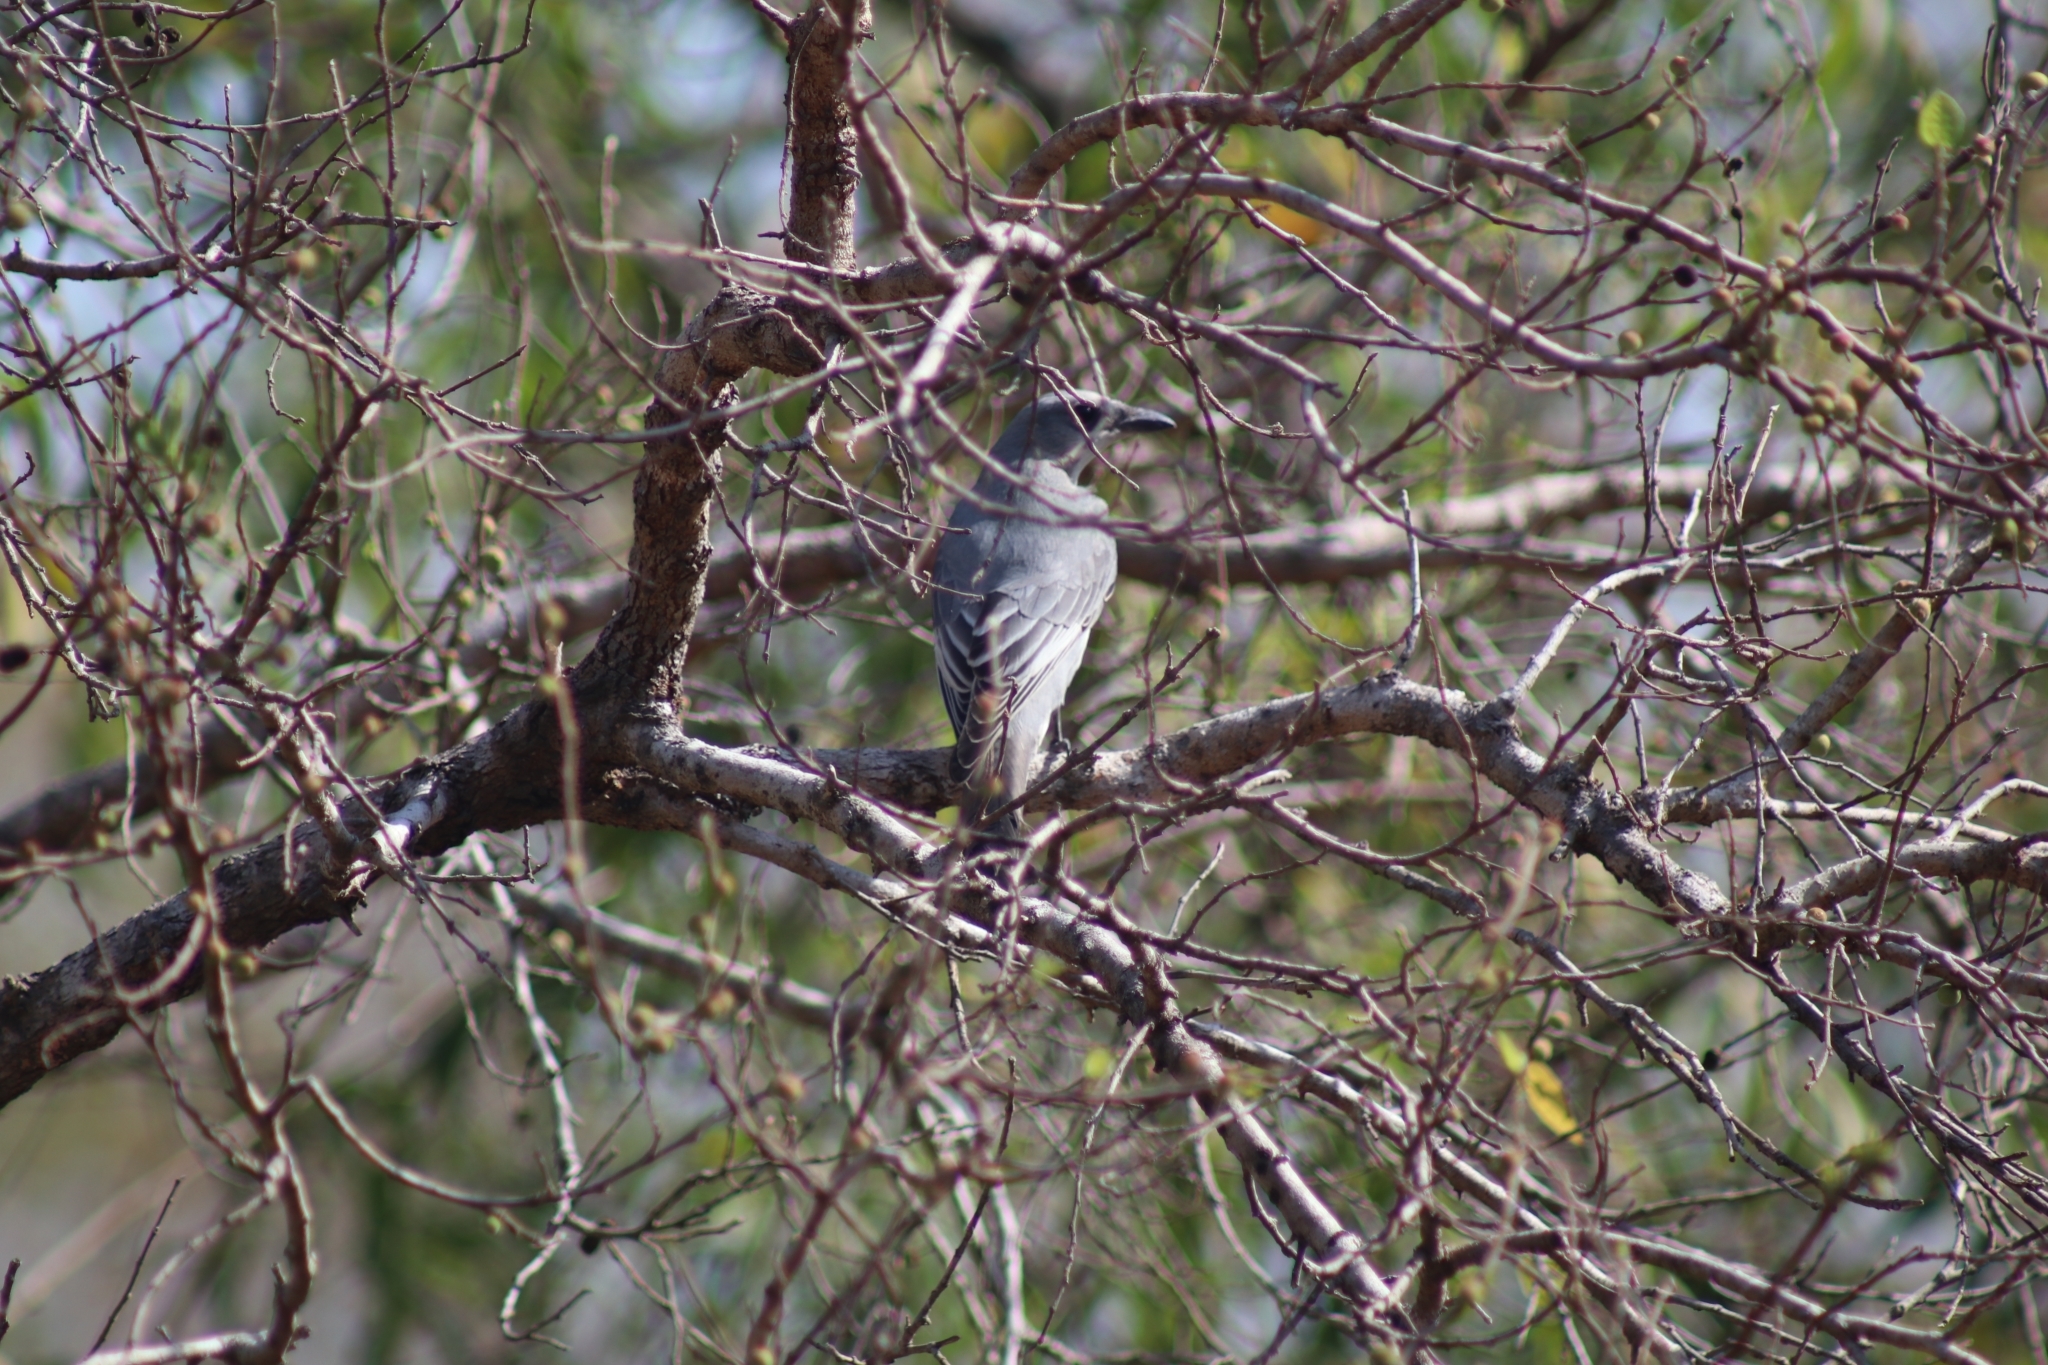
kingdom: Animalia
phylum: Chordata
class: Aves
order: Passeriformes
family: Campephagidae
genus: Coracina
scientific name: Coracina papuensis
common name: White-bellied cuckooshrike
